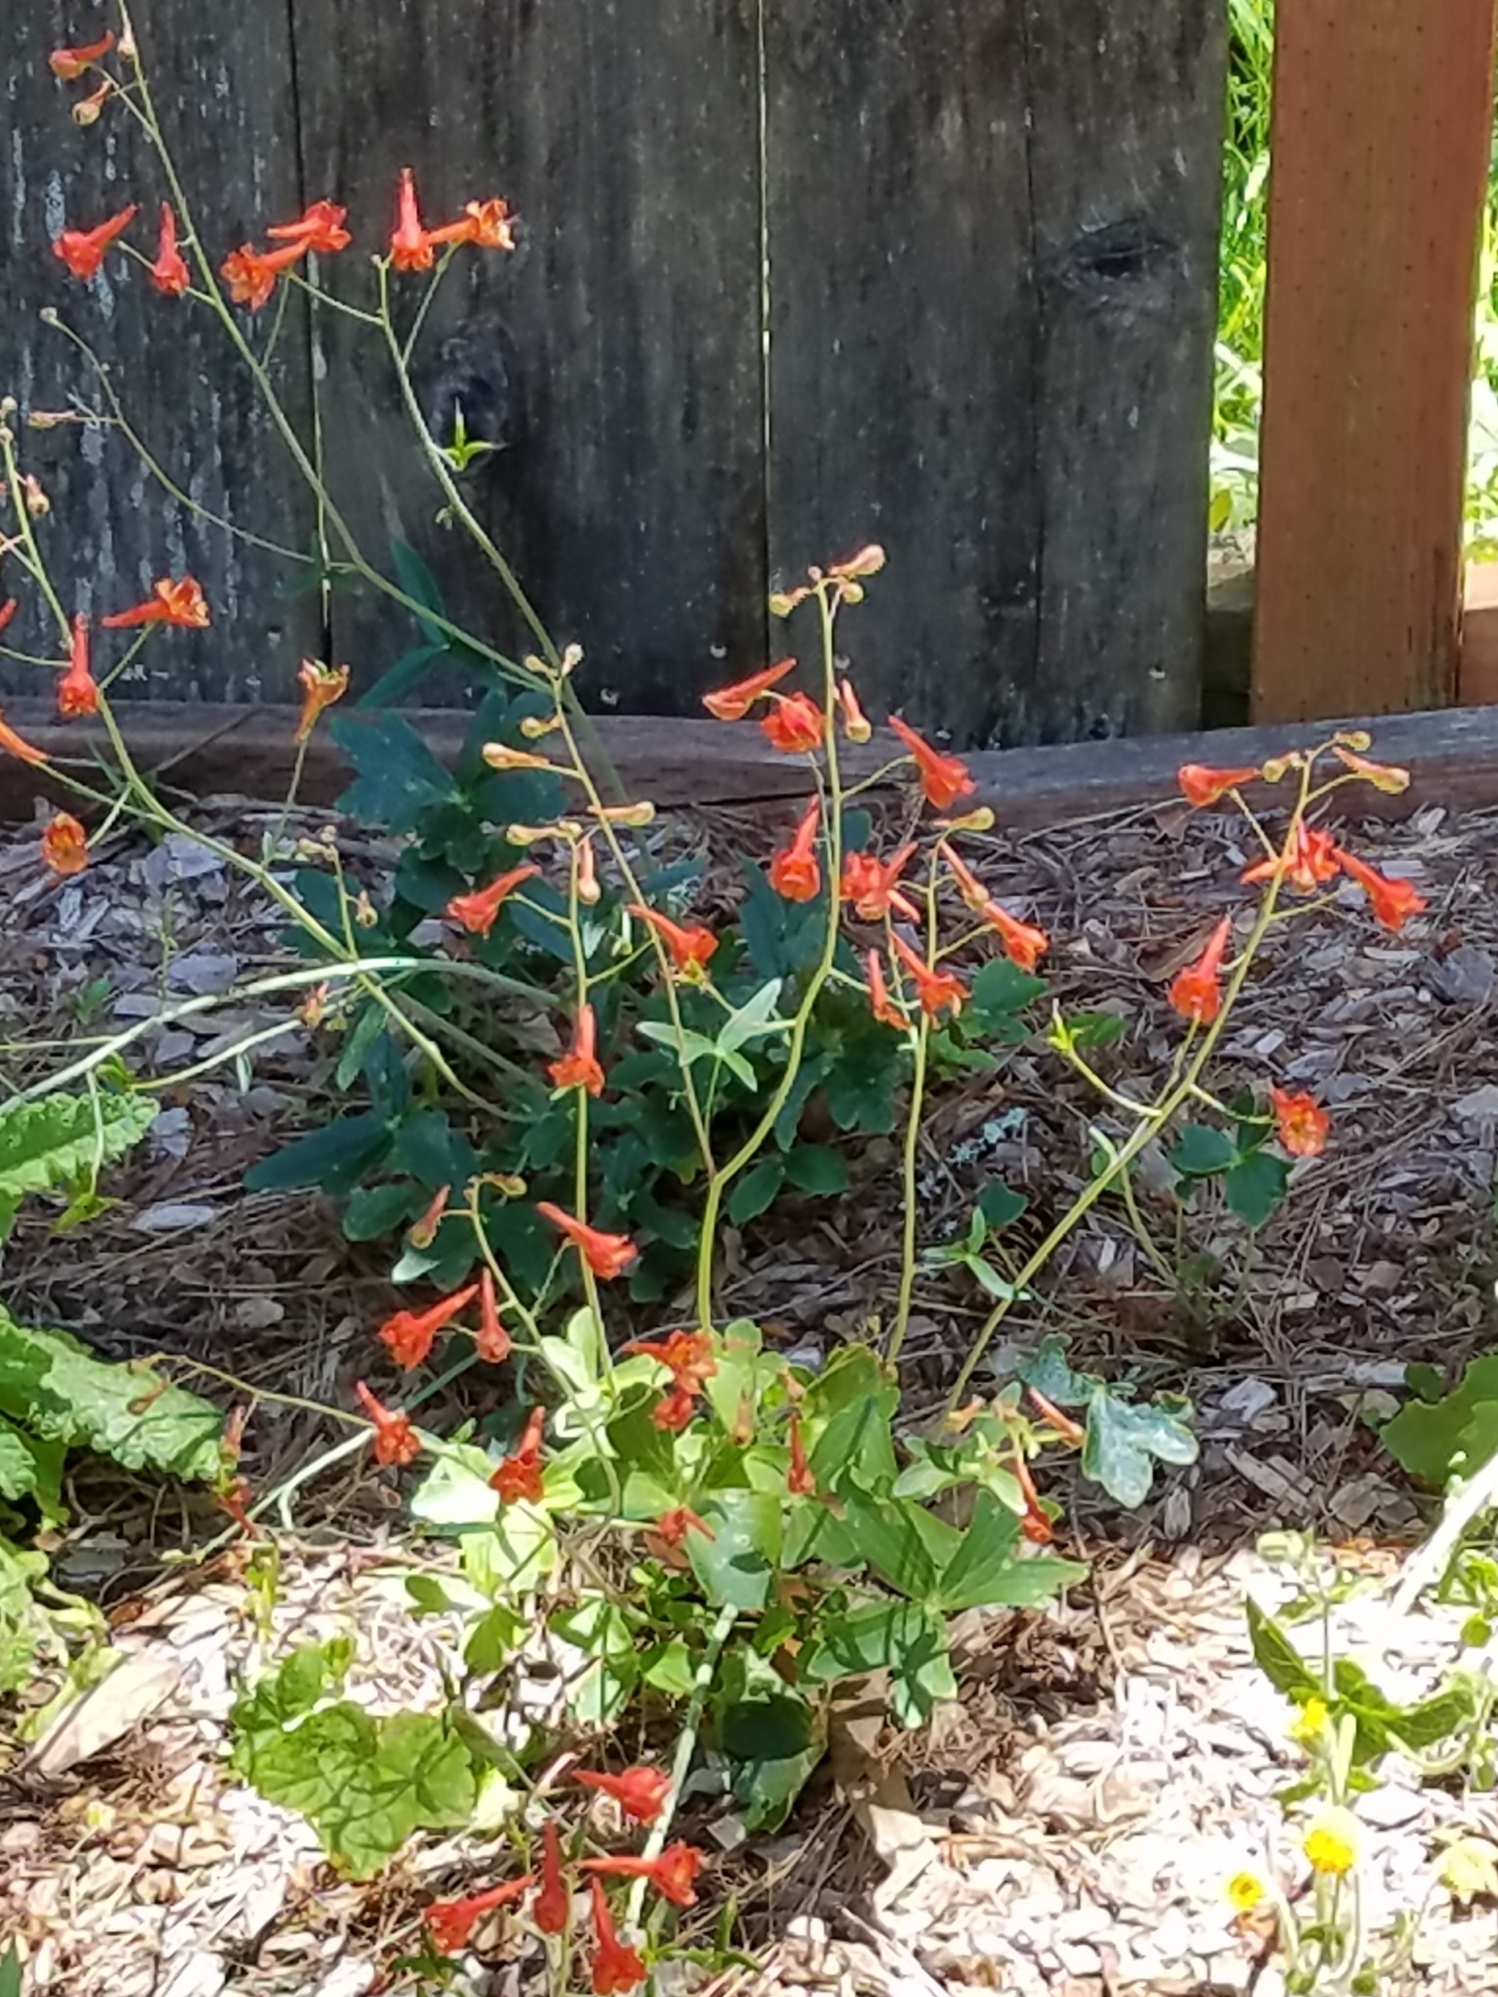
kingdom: Plantae
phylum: Tracheophyta
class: Magnoliopsida
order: Ranunculales
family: Ranunculaceae
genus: Delphinium
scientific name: Delphinium nudicaule
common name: Red larkspur
